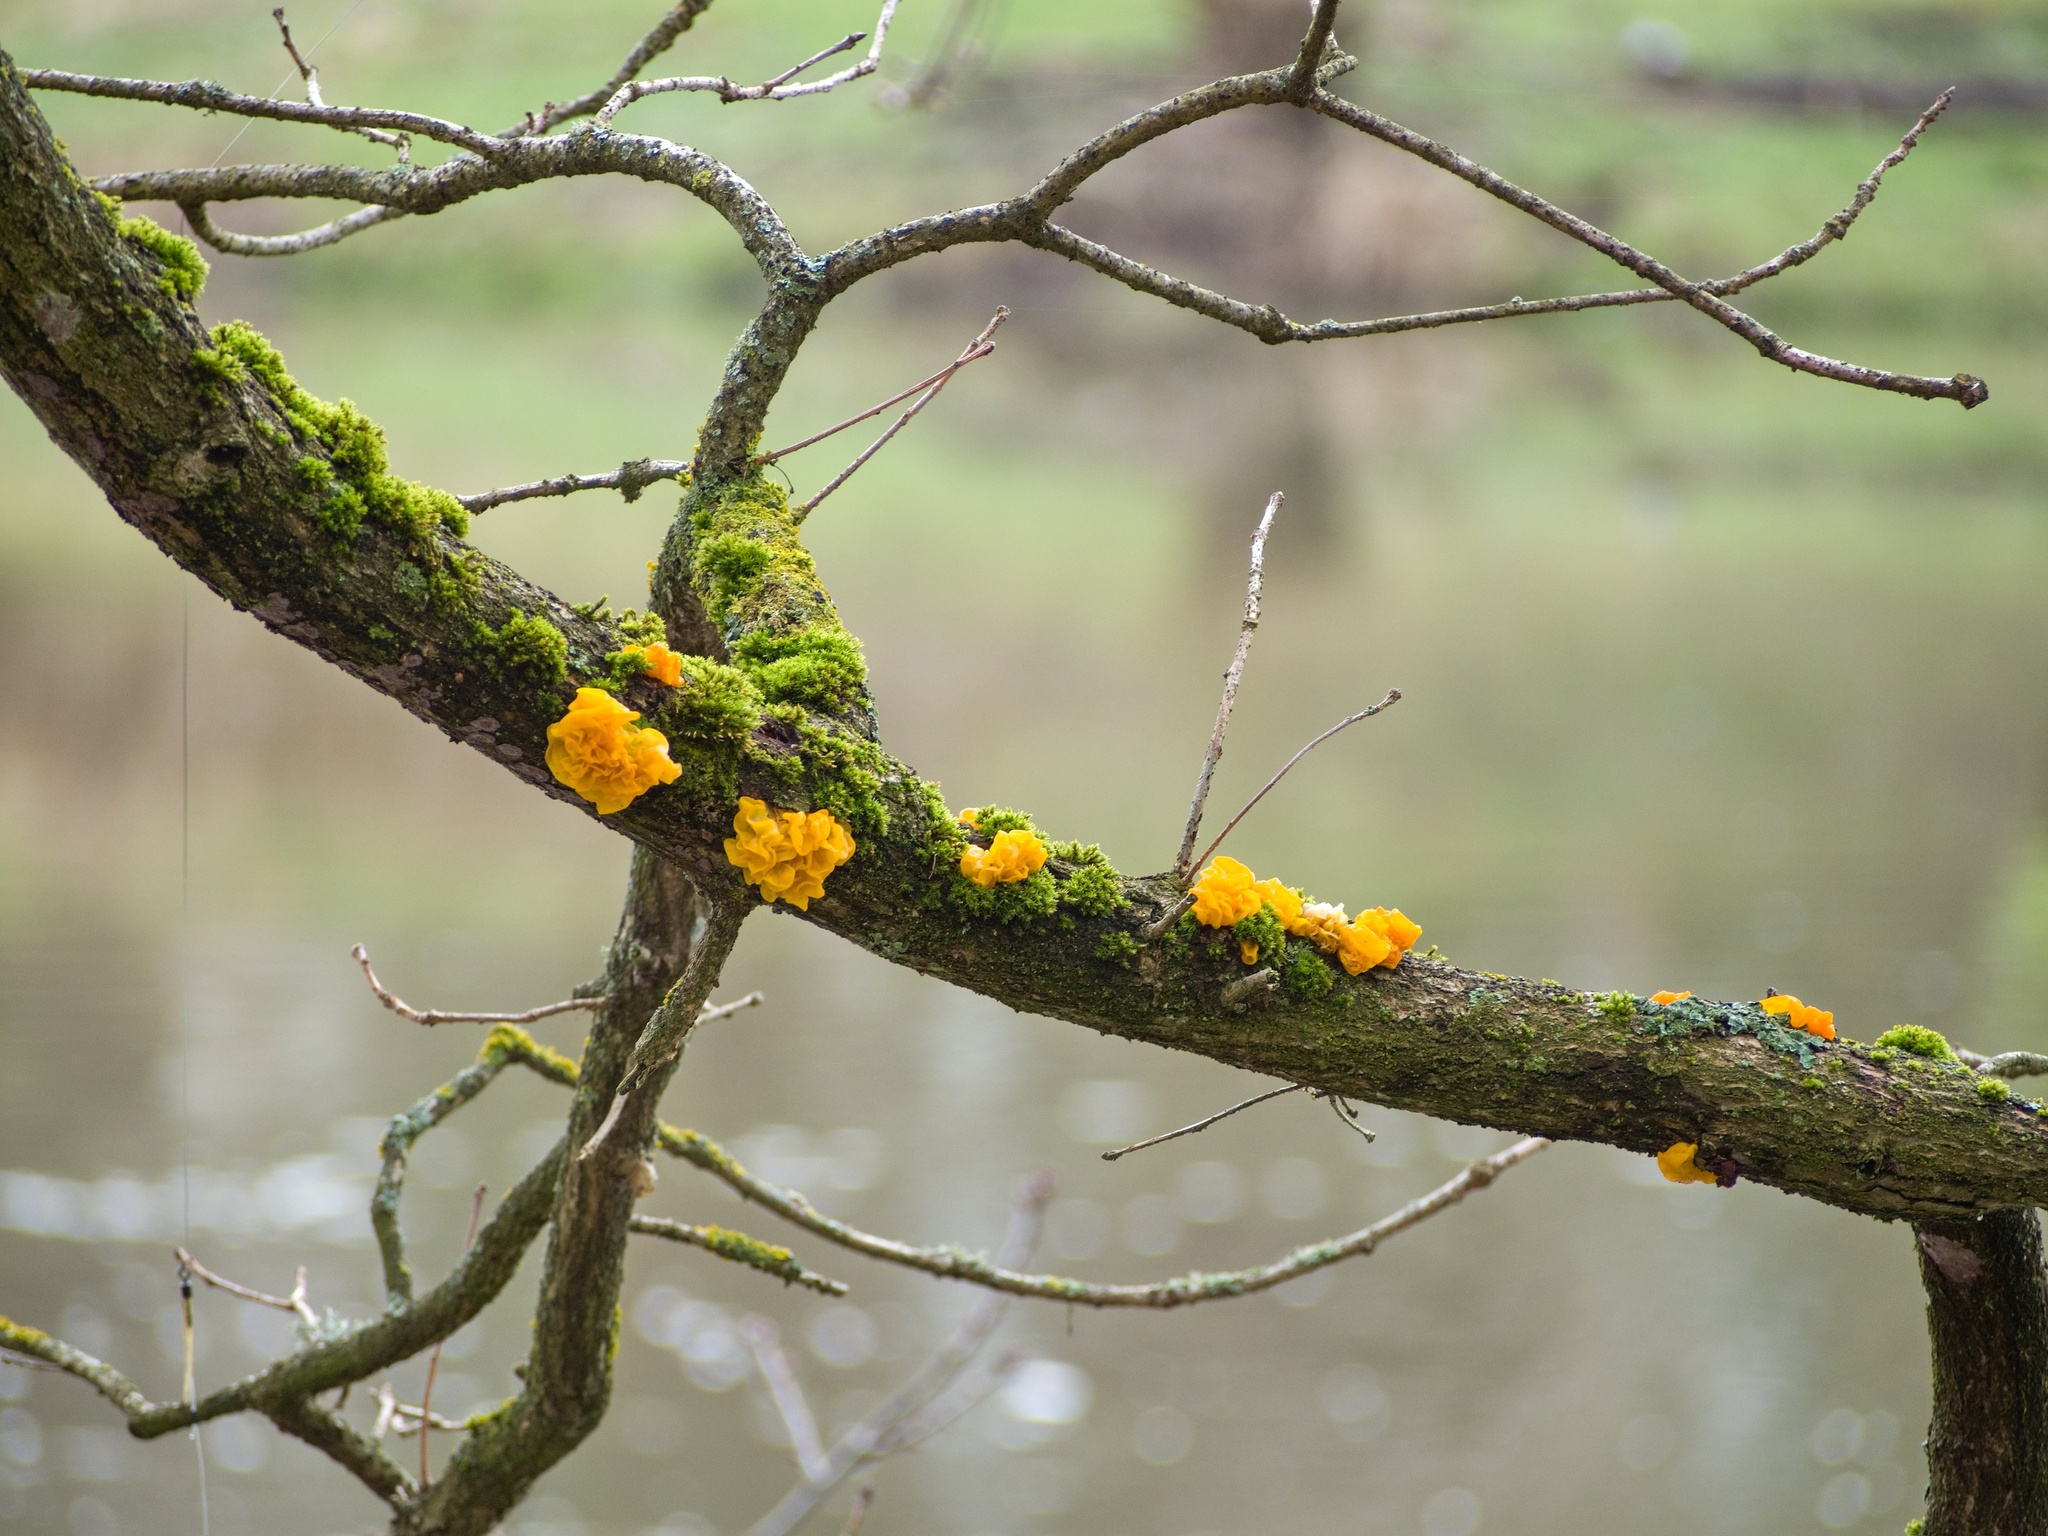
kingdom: Fungi
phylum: Basidiomycota
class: Tremellomycetes
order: Tremellales
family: Tremellaceae
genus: Tremella
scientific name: Tremella mesenterica
